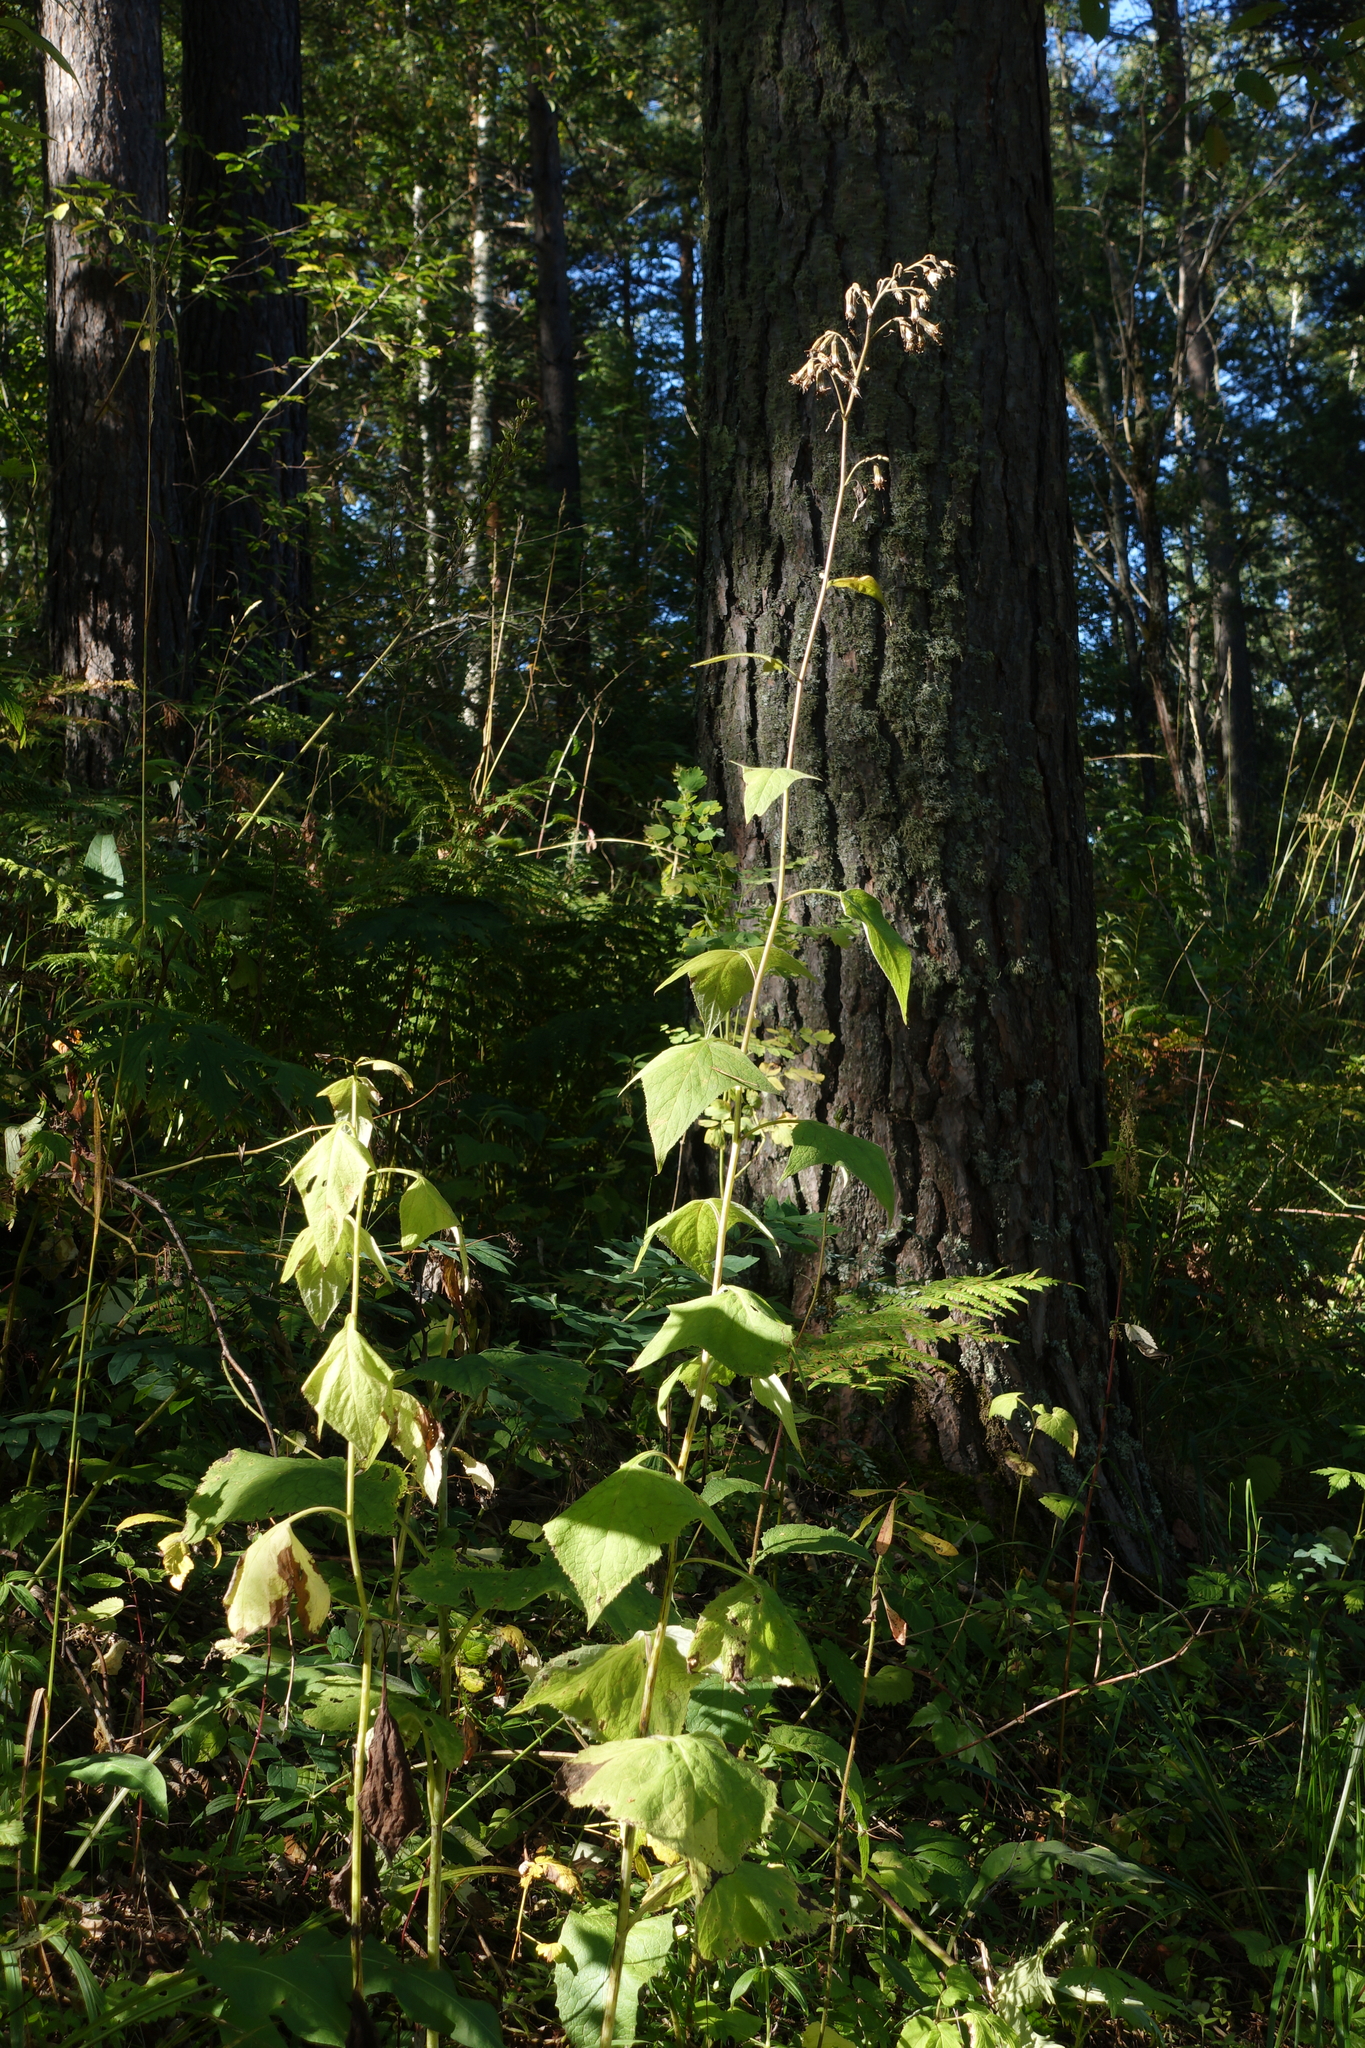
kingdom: Plantae
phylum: Tracheophyta
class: Magnoliopsida
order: Asterales
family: Asteraceae
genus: Parasenecio
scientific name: Parasenecio hastatus
